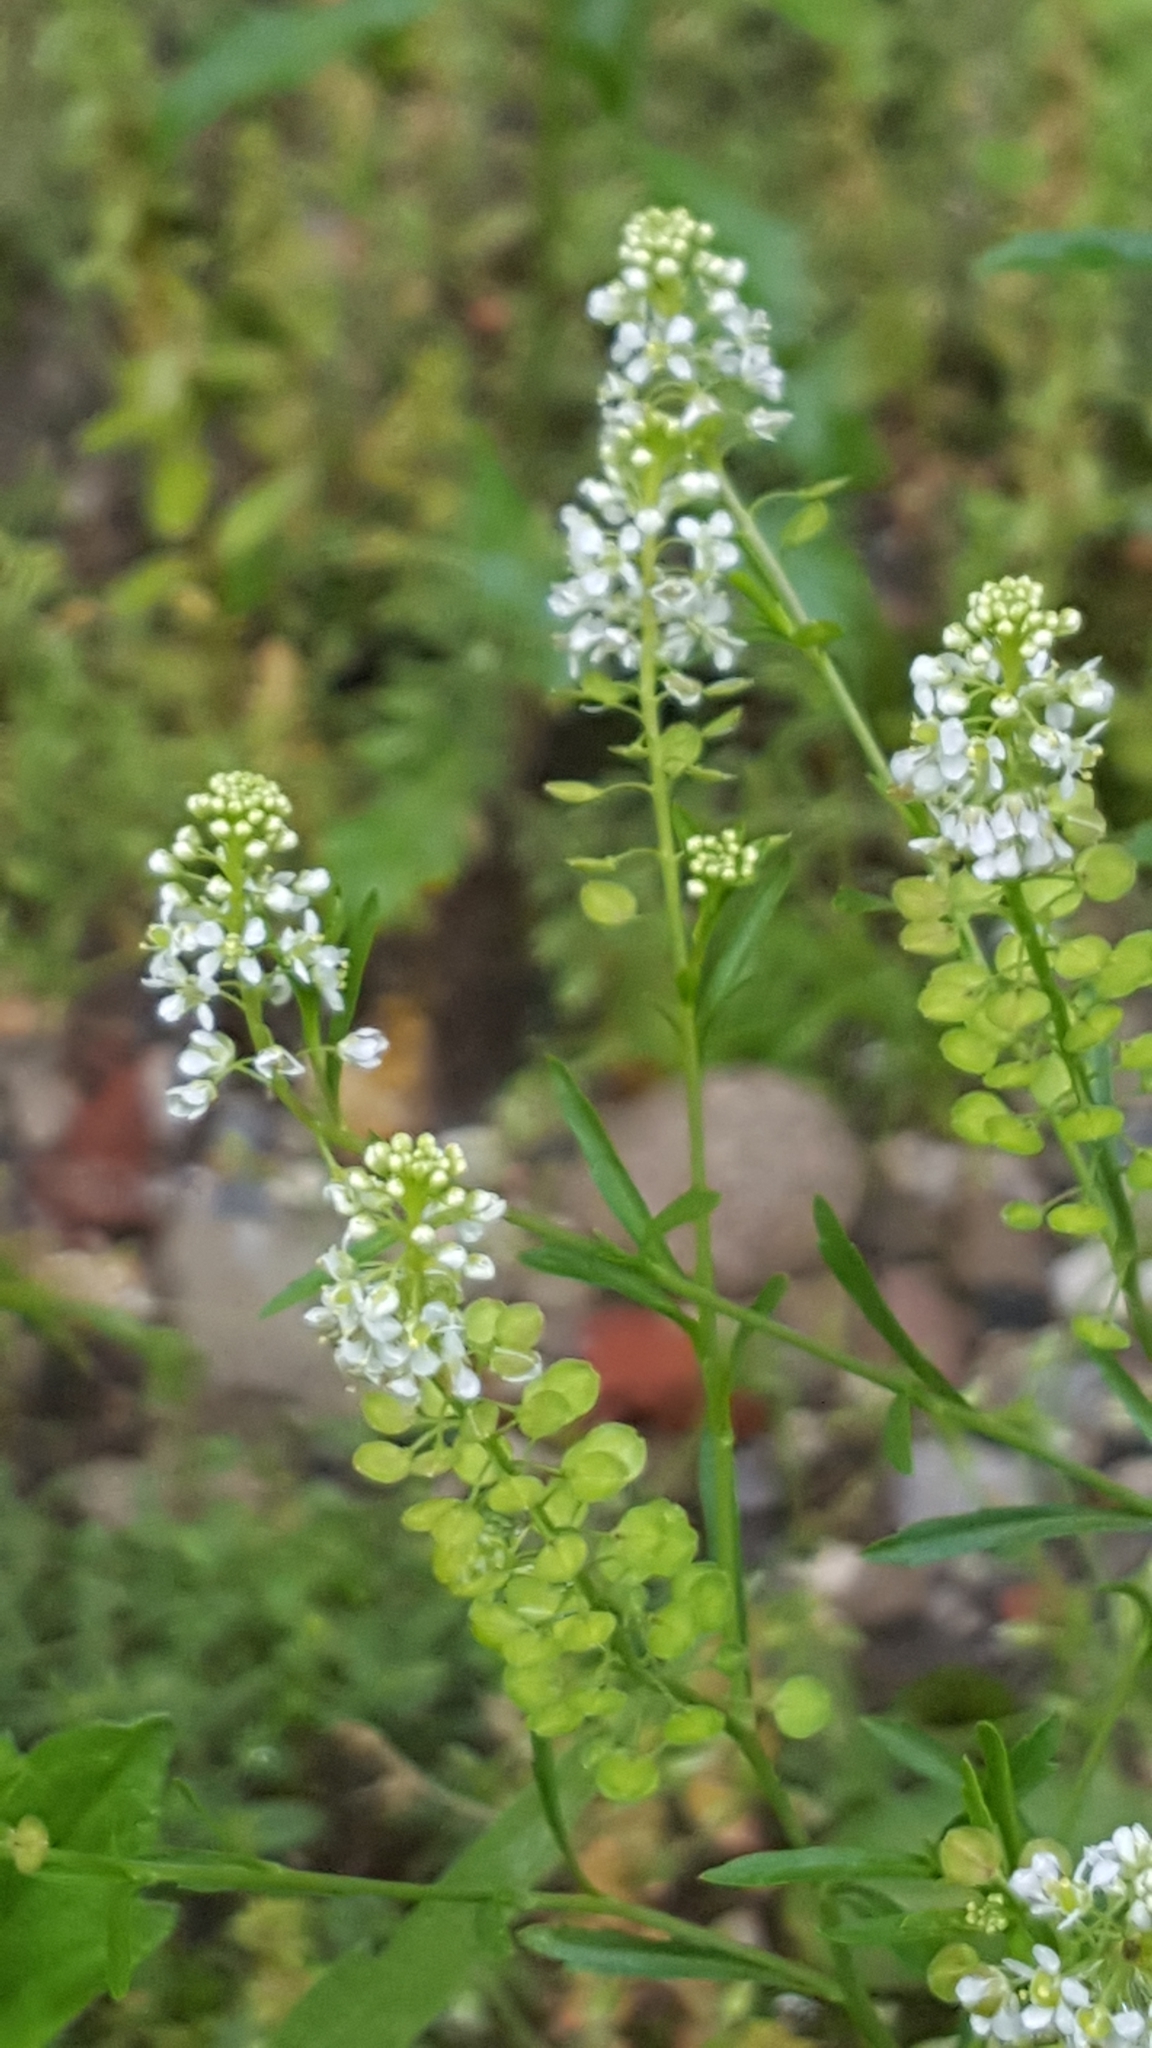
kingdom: Plantae
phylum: Tracheophyta
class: Magnoliopsida
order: Brassicales
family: Brassicaceae
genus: Lepidium
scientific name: Lepidium virginicum
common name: Least pepperwort
